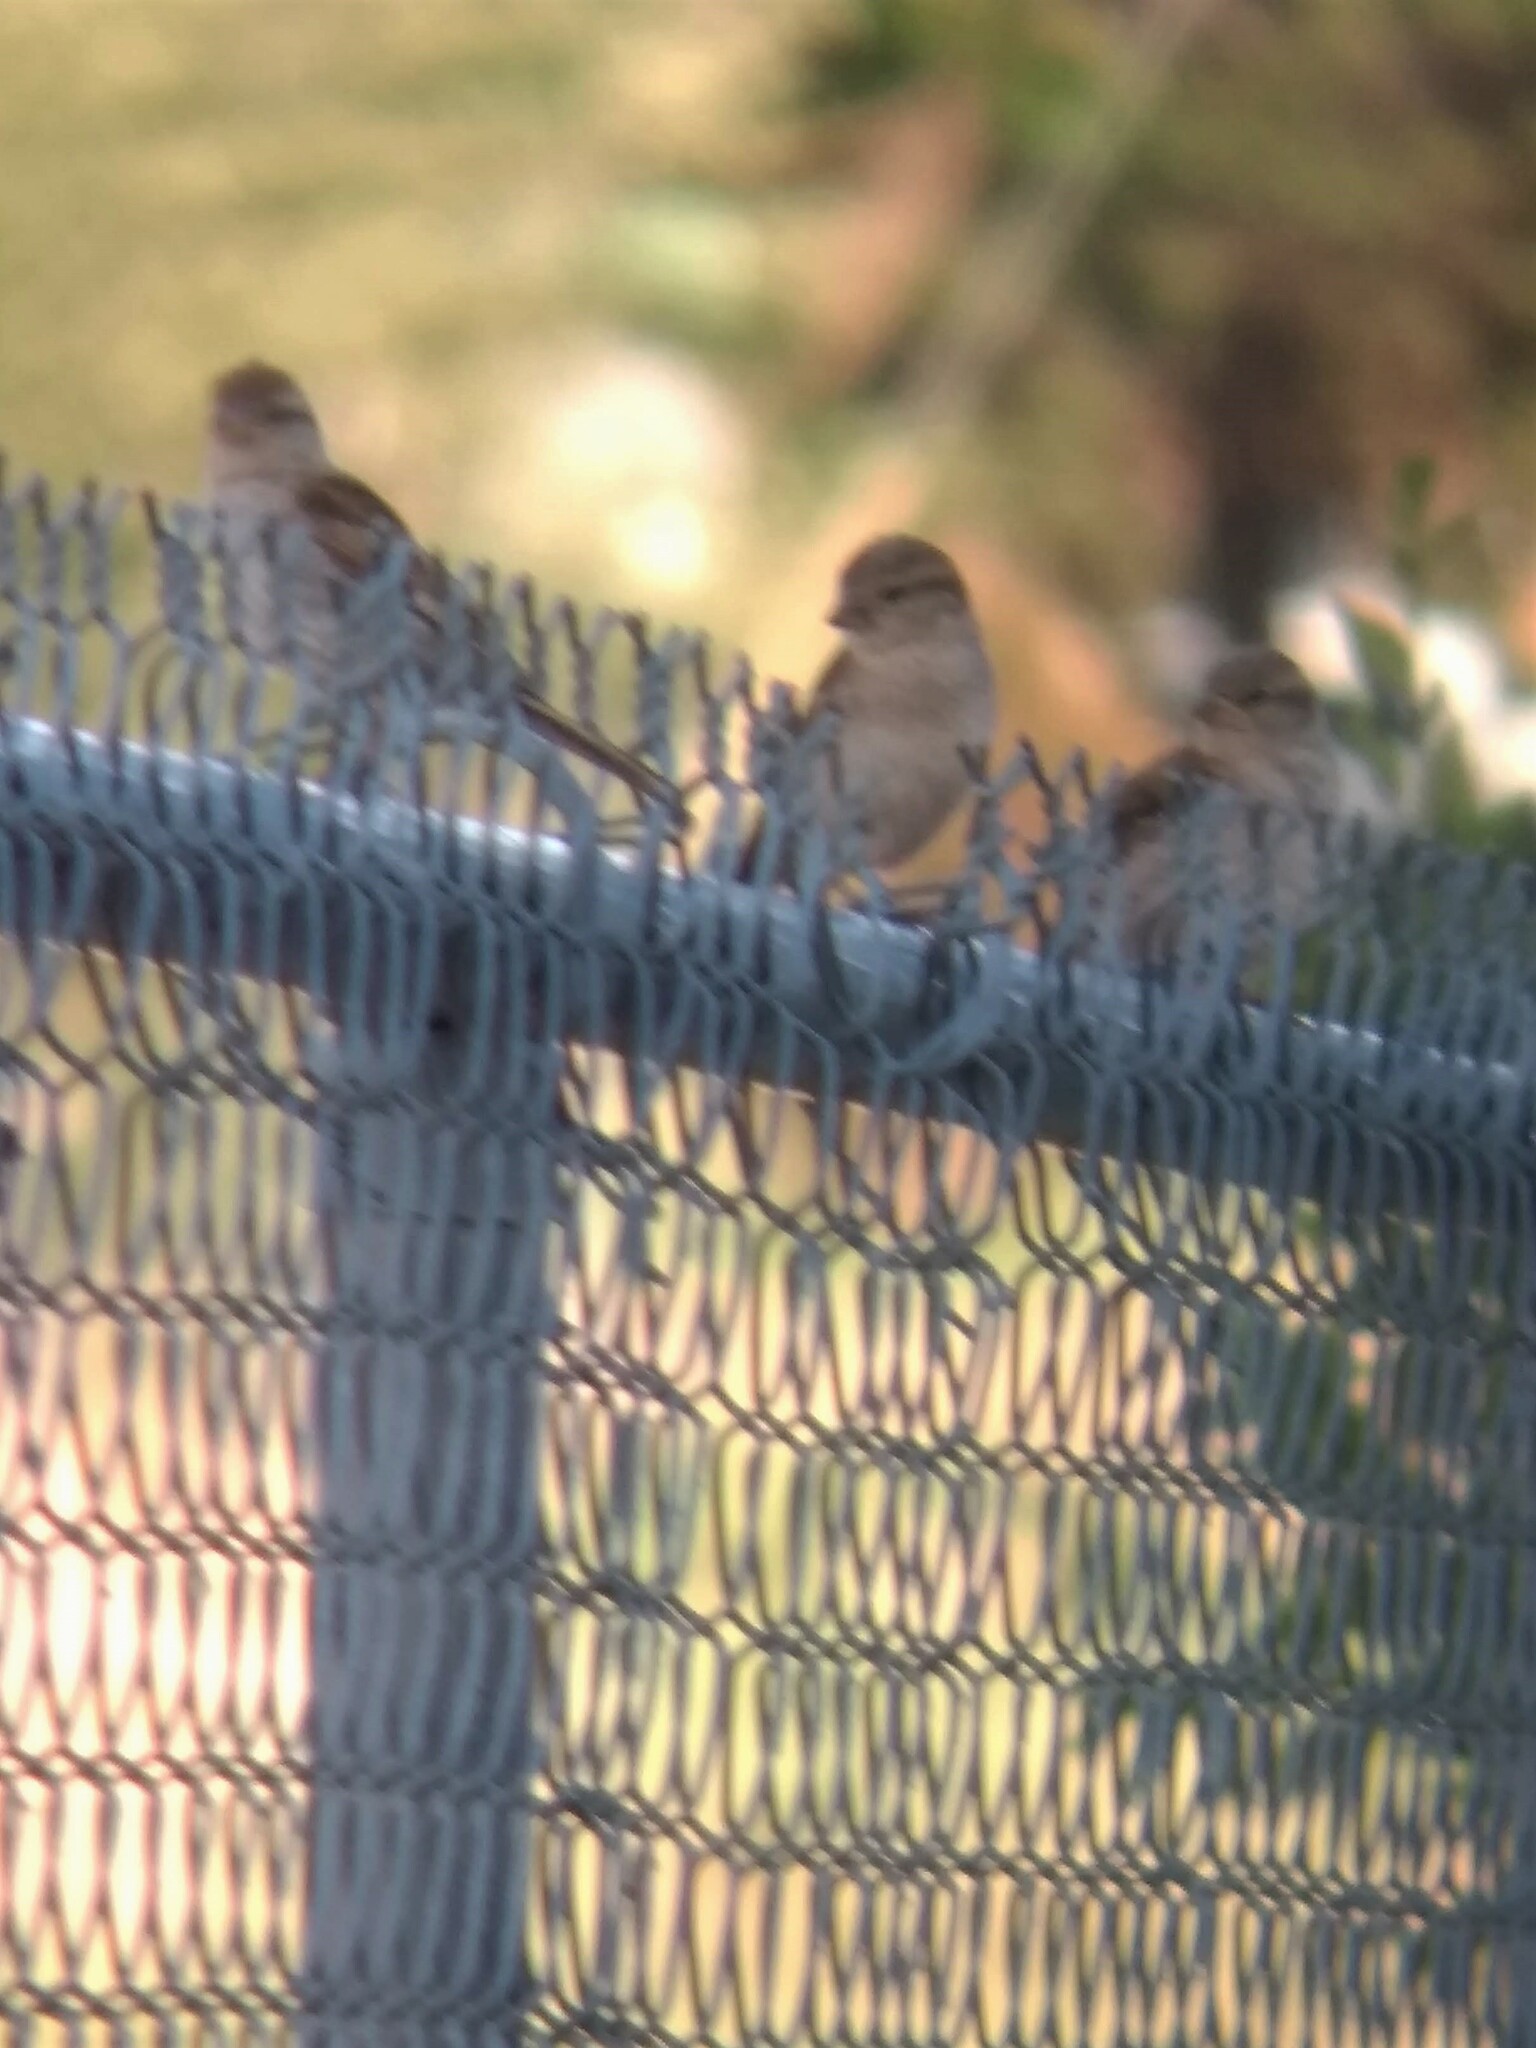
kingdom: Animalia
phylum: Chordata
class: Aves
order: Passeriformes
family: Passeridae
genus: Passer
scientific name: Passer domesticus
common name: House sparrow
